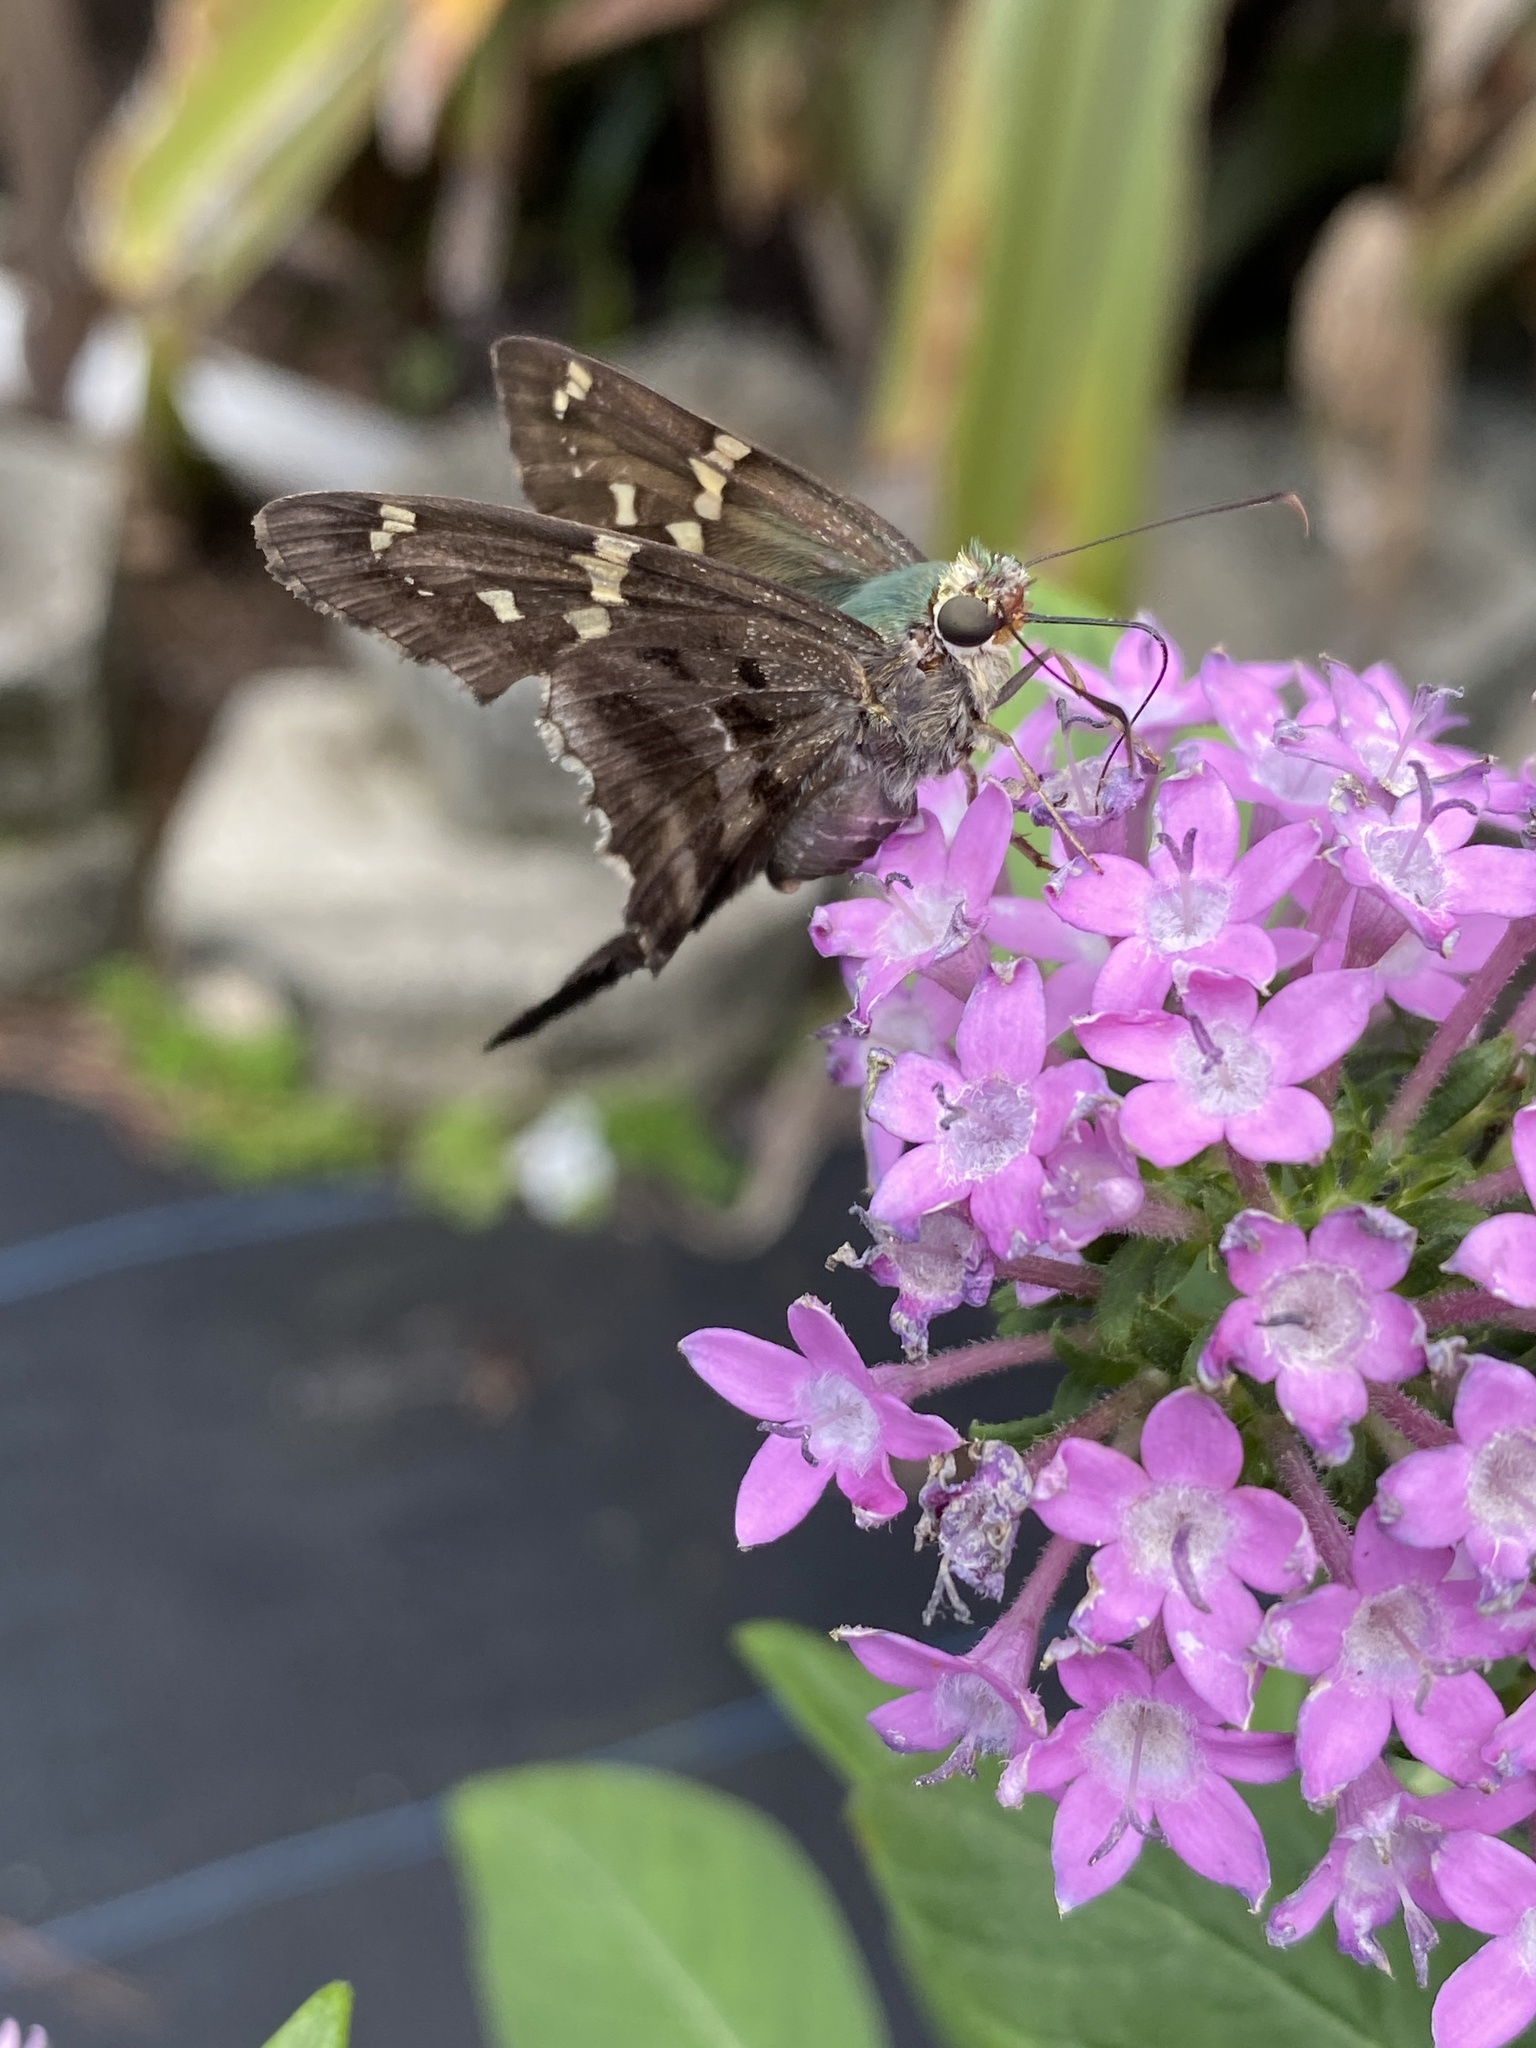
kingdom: Animalia
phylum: Arthropoda
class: Insecta
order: Lepidoptera
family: Hesperiidae
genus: Urbanus
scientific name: Urbanus proteus
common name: Long-tailed skipper
